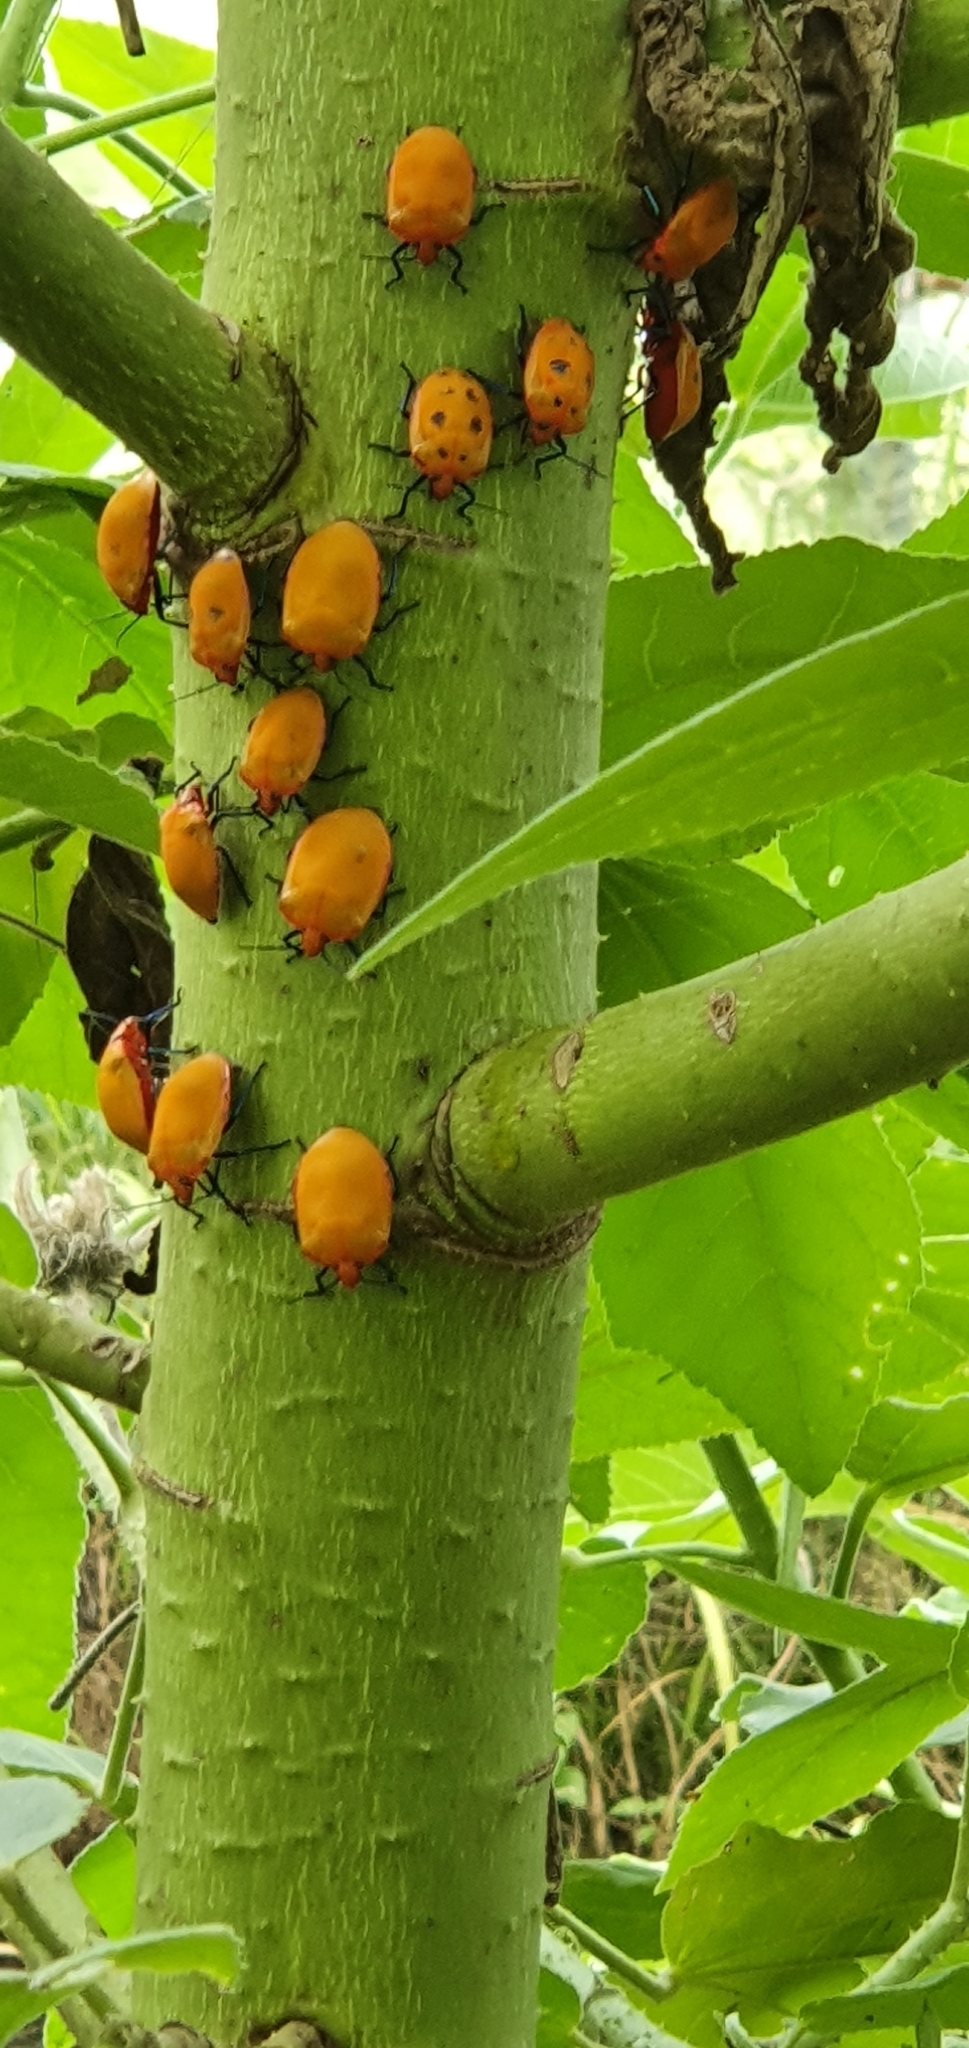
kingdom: Animalia
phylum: Arthropoda
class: Insecta
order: Hemiptera
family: Scutelleridae
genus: Tectocoris
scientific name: Tectocoris diophthalmus
